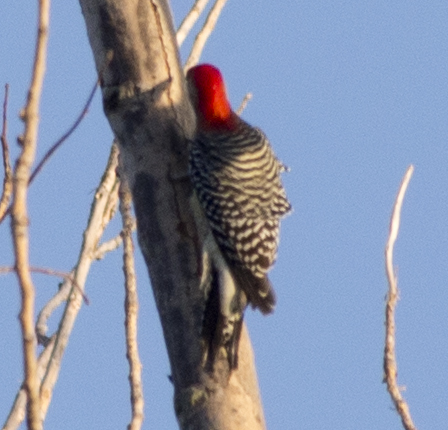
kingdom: Animalia
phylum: Chordata
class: Aves
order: Piciformes
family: Picidae
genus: Melanerpes
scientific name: Melanerpes carolinus
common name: Red-bellied woodpecker
